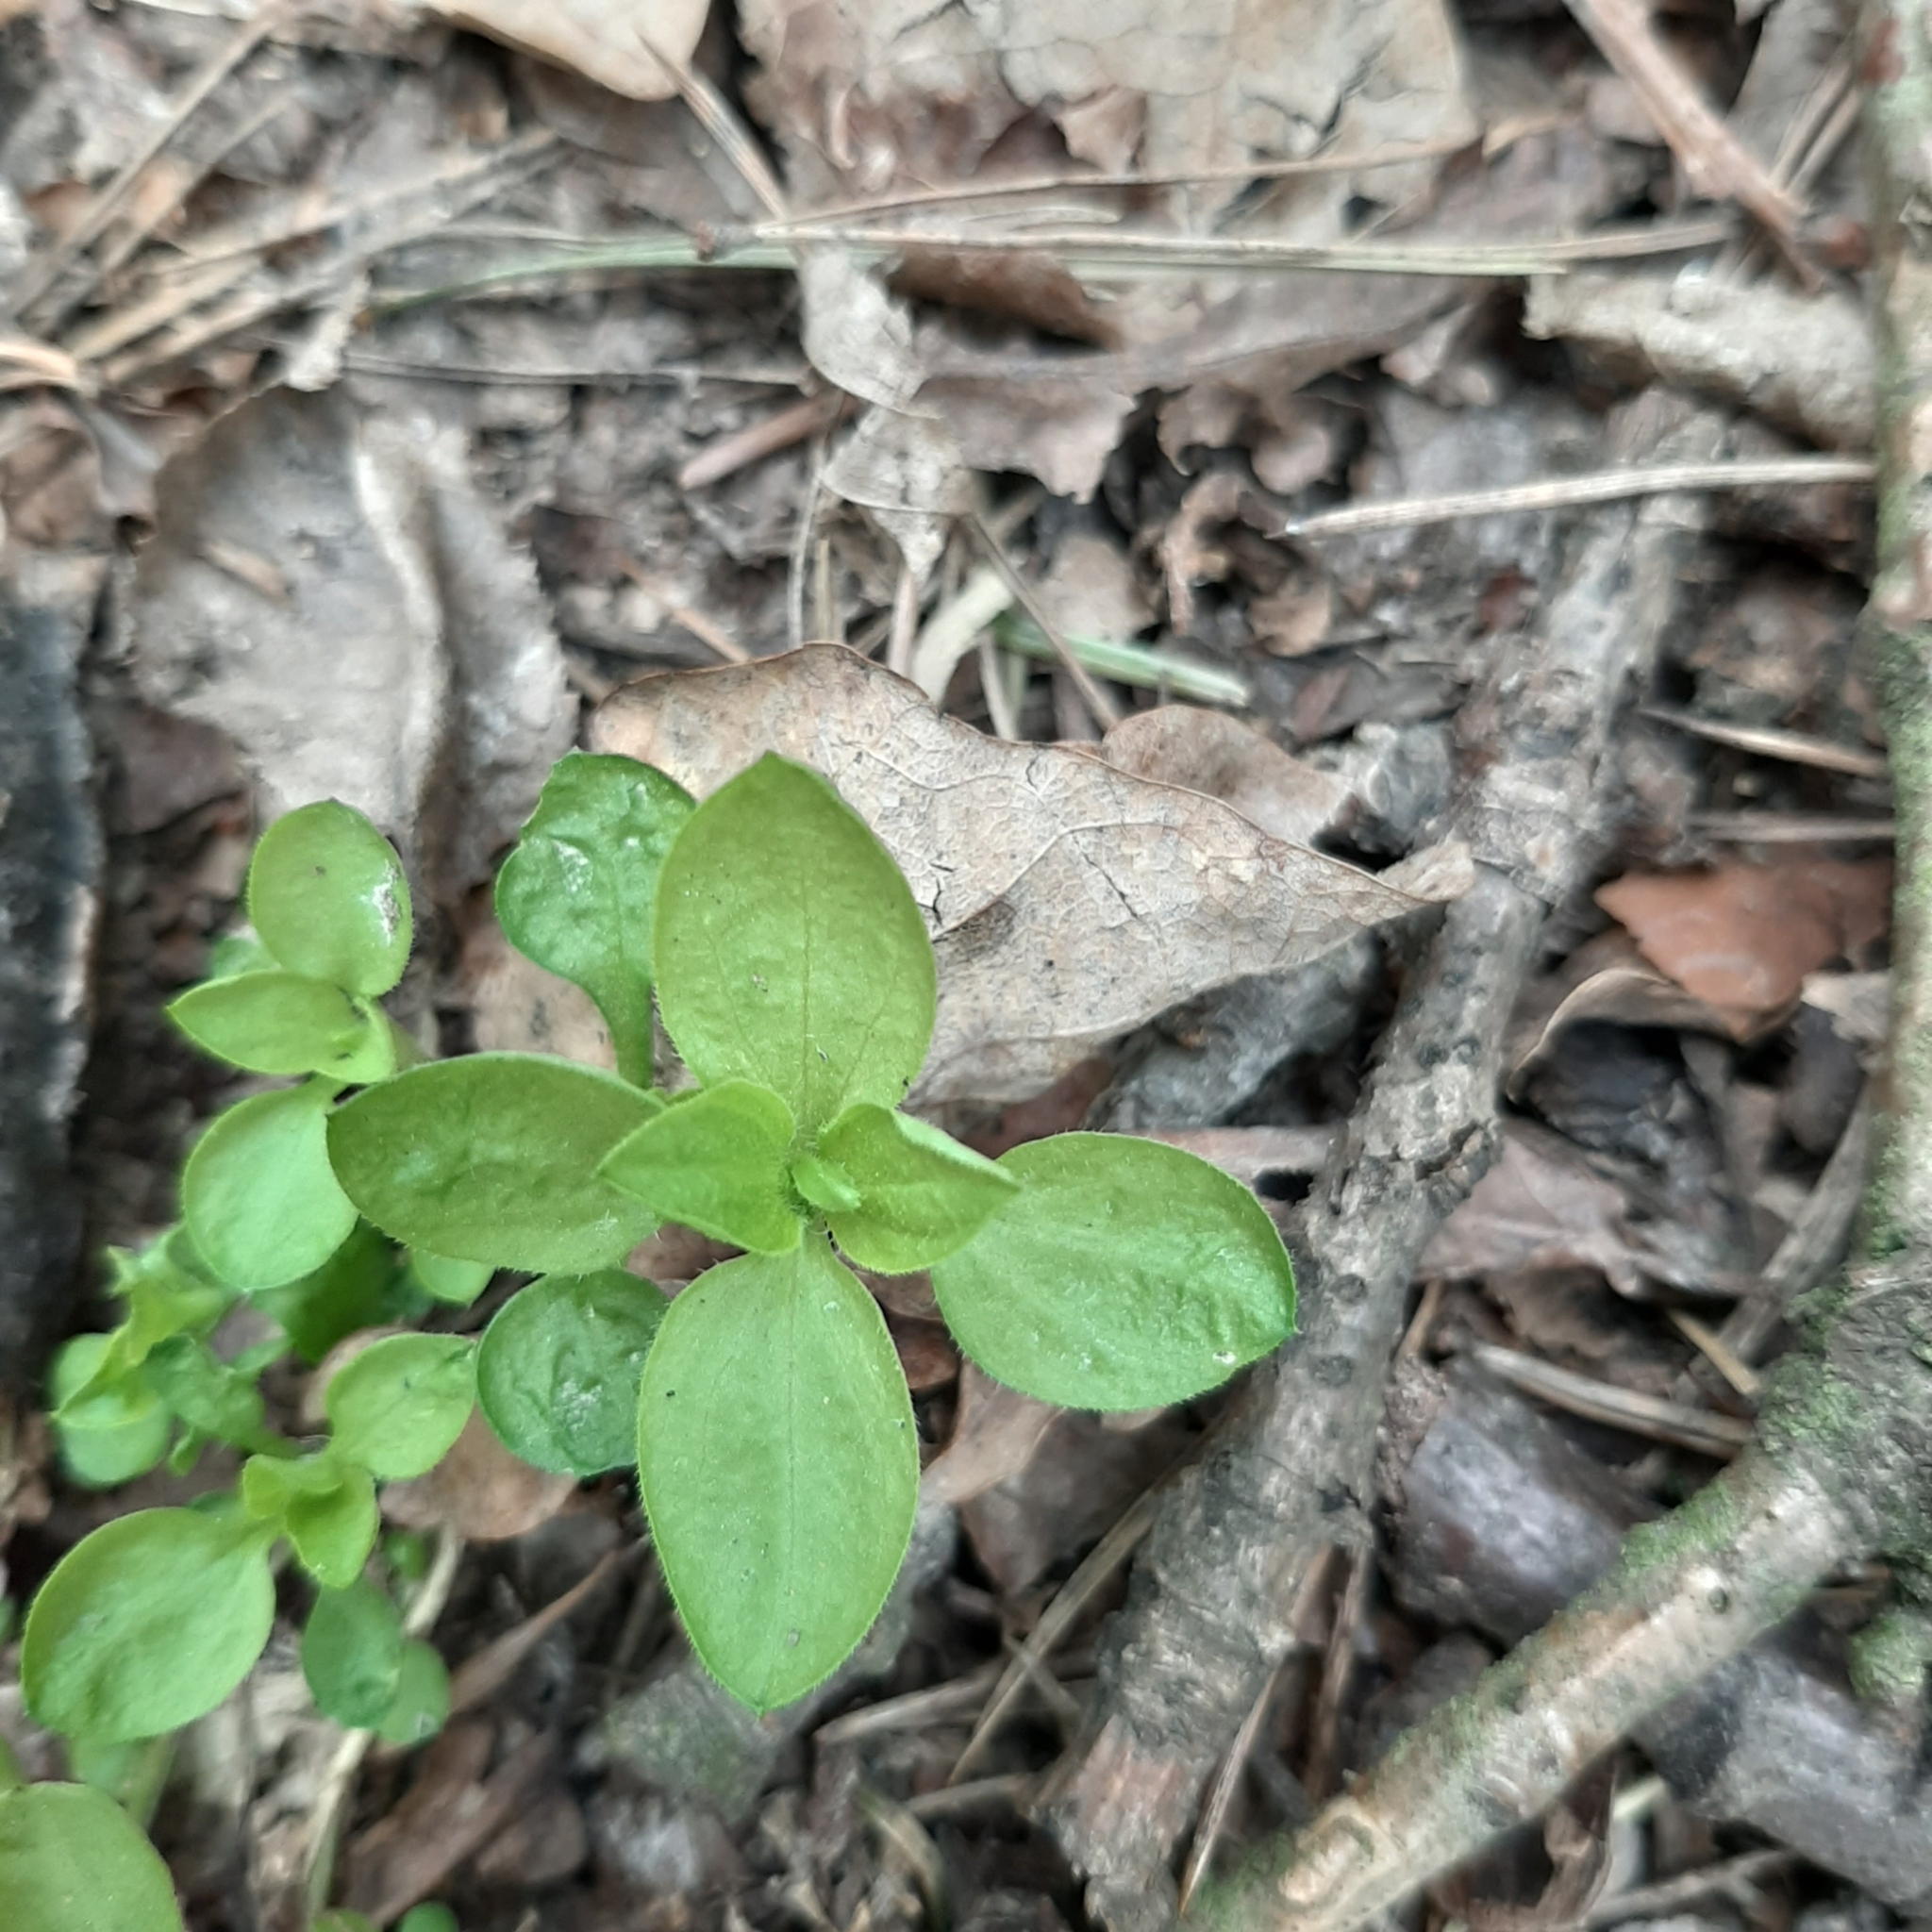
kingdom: Plantae
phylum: Tracheophyta
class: Magnoliopsida
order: Caryophyllales
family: Caryophyllaceae
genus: Stellaria
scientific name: Stellaria media
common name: Common chickweed
